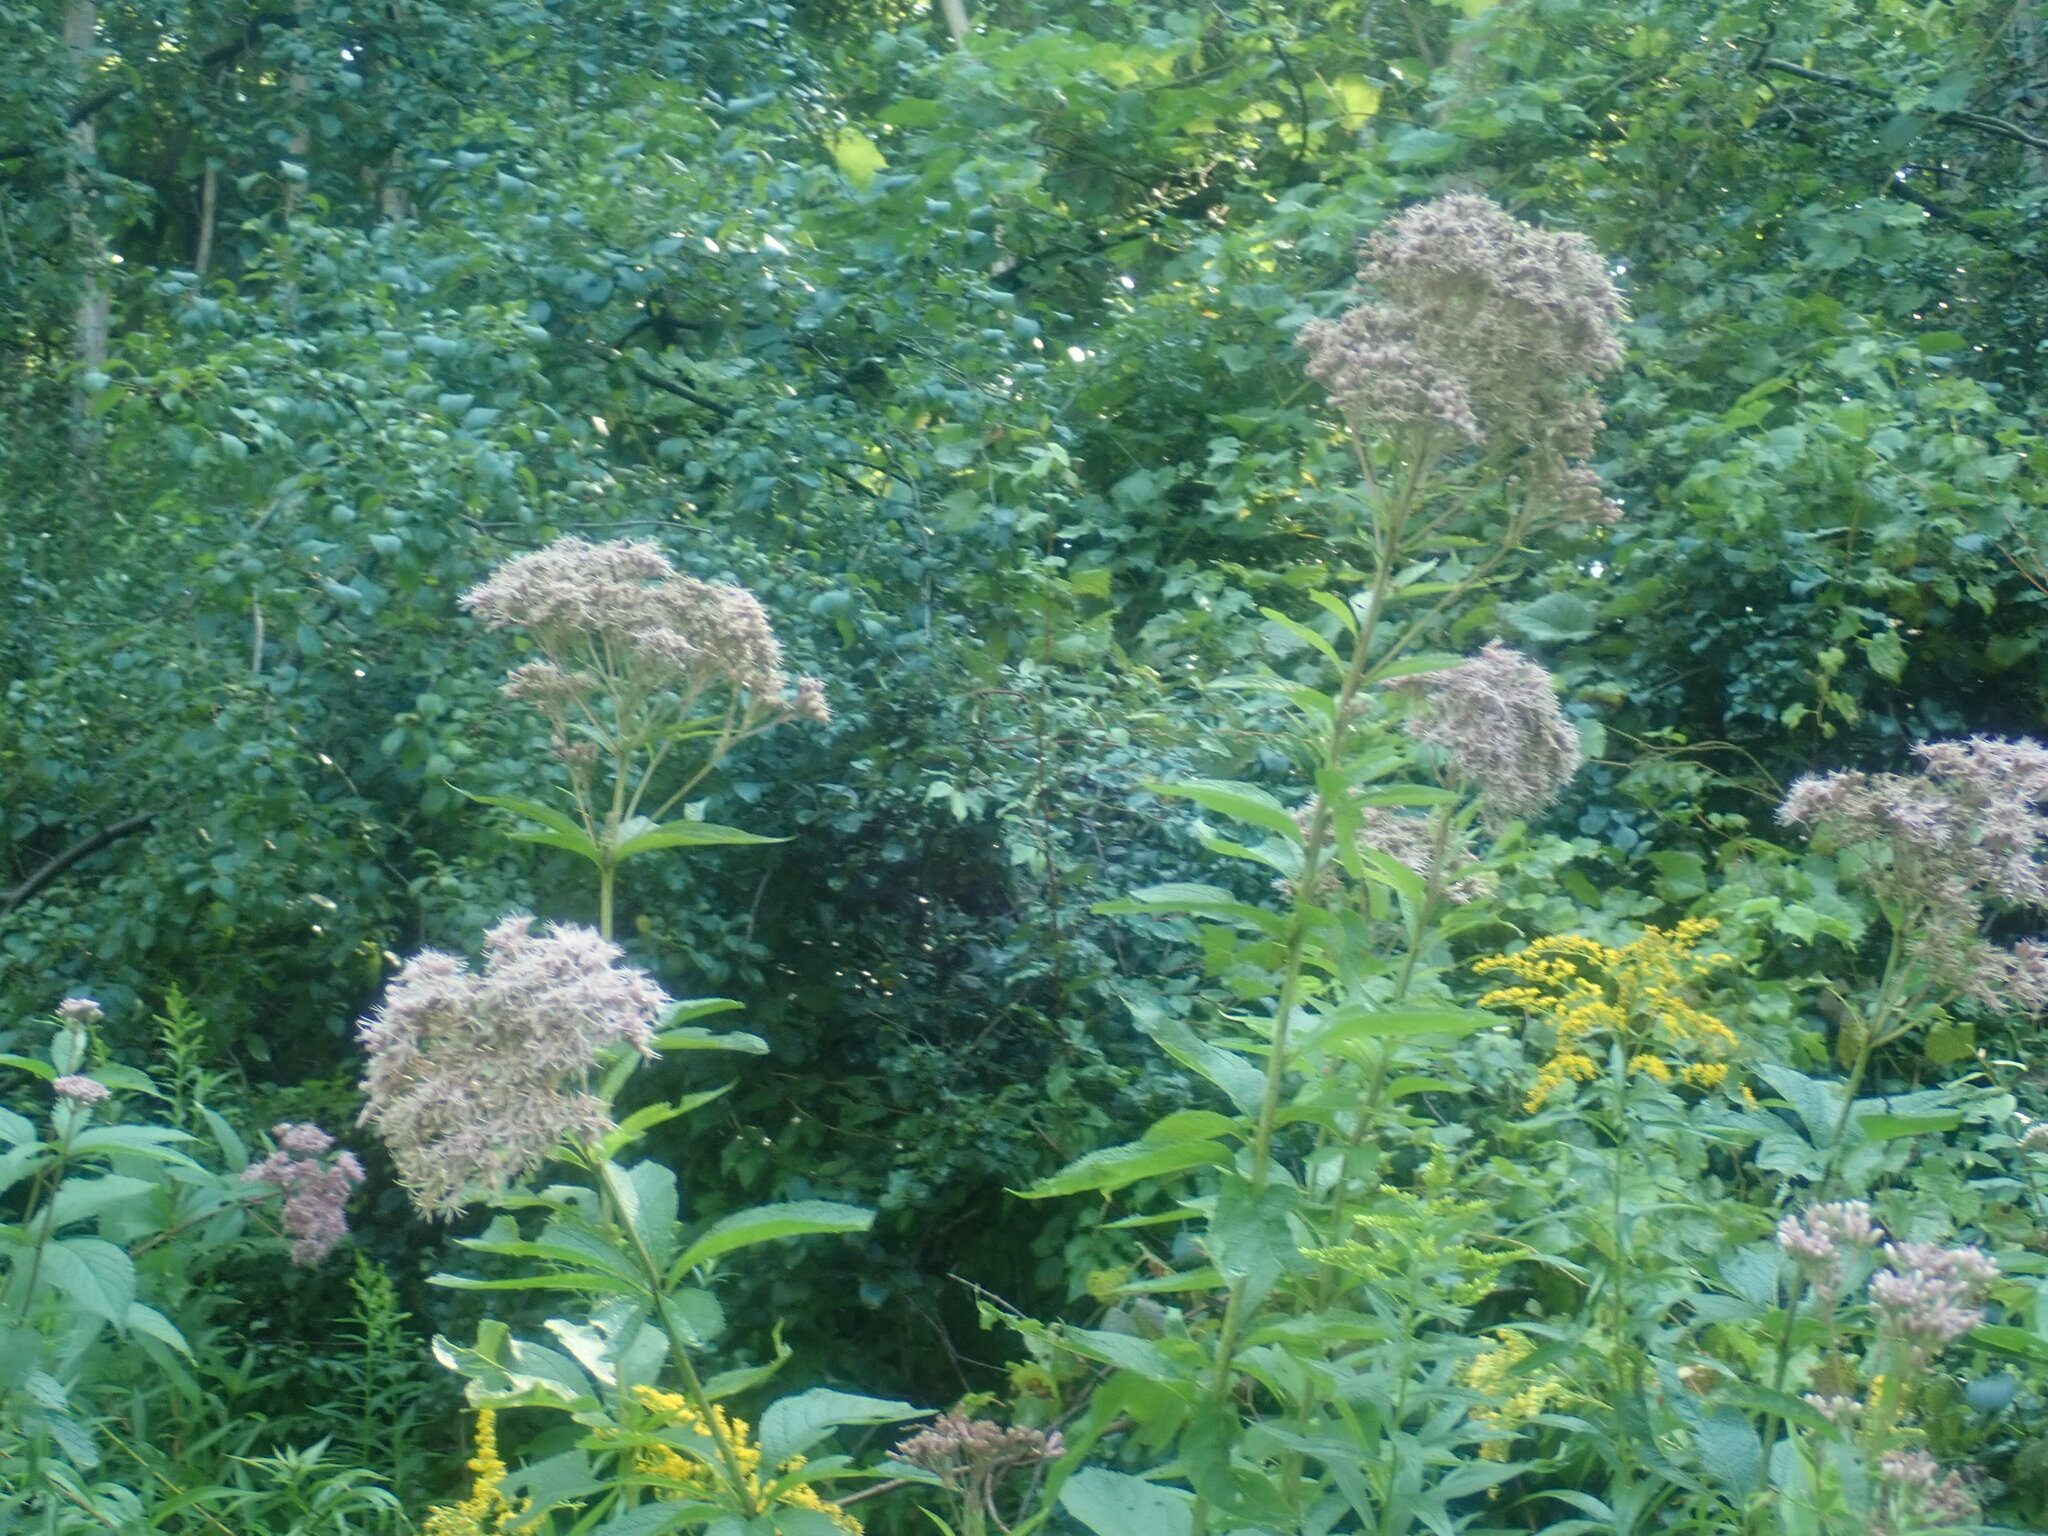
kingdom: Plantae
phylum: Tracheophyta
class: Magnoliopsida
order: Asterales
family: Asteraceae
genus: Eutrochium
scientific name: Eutrochium
